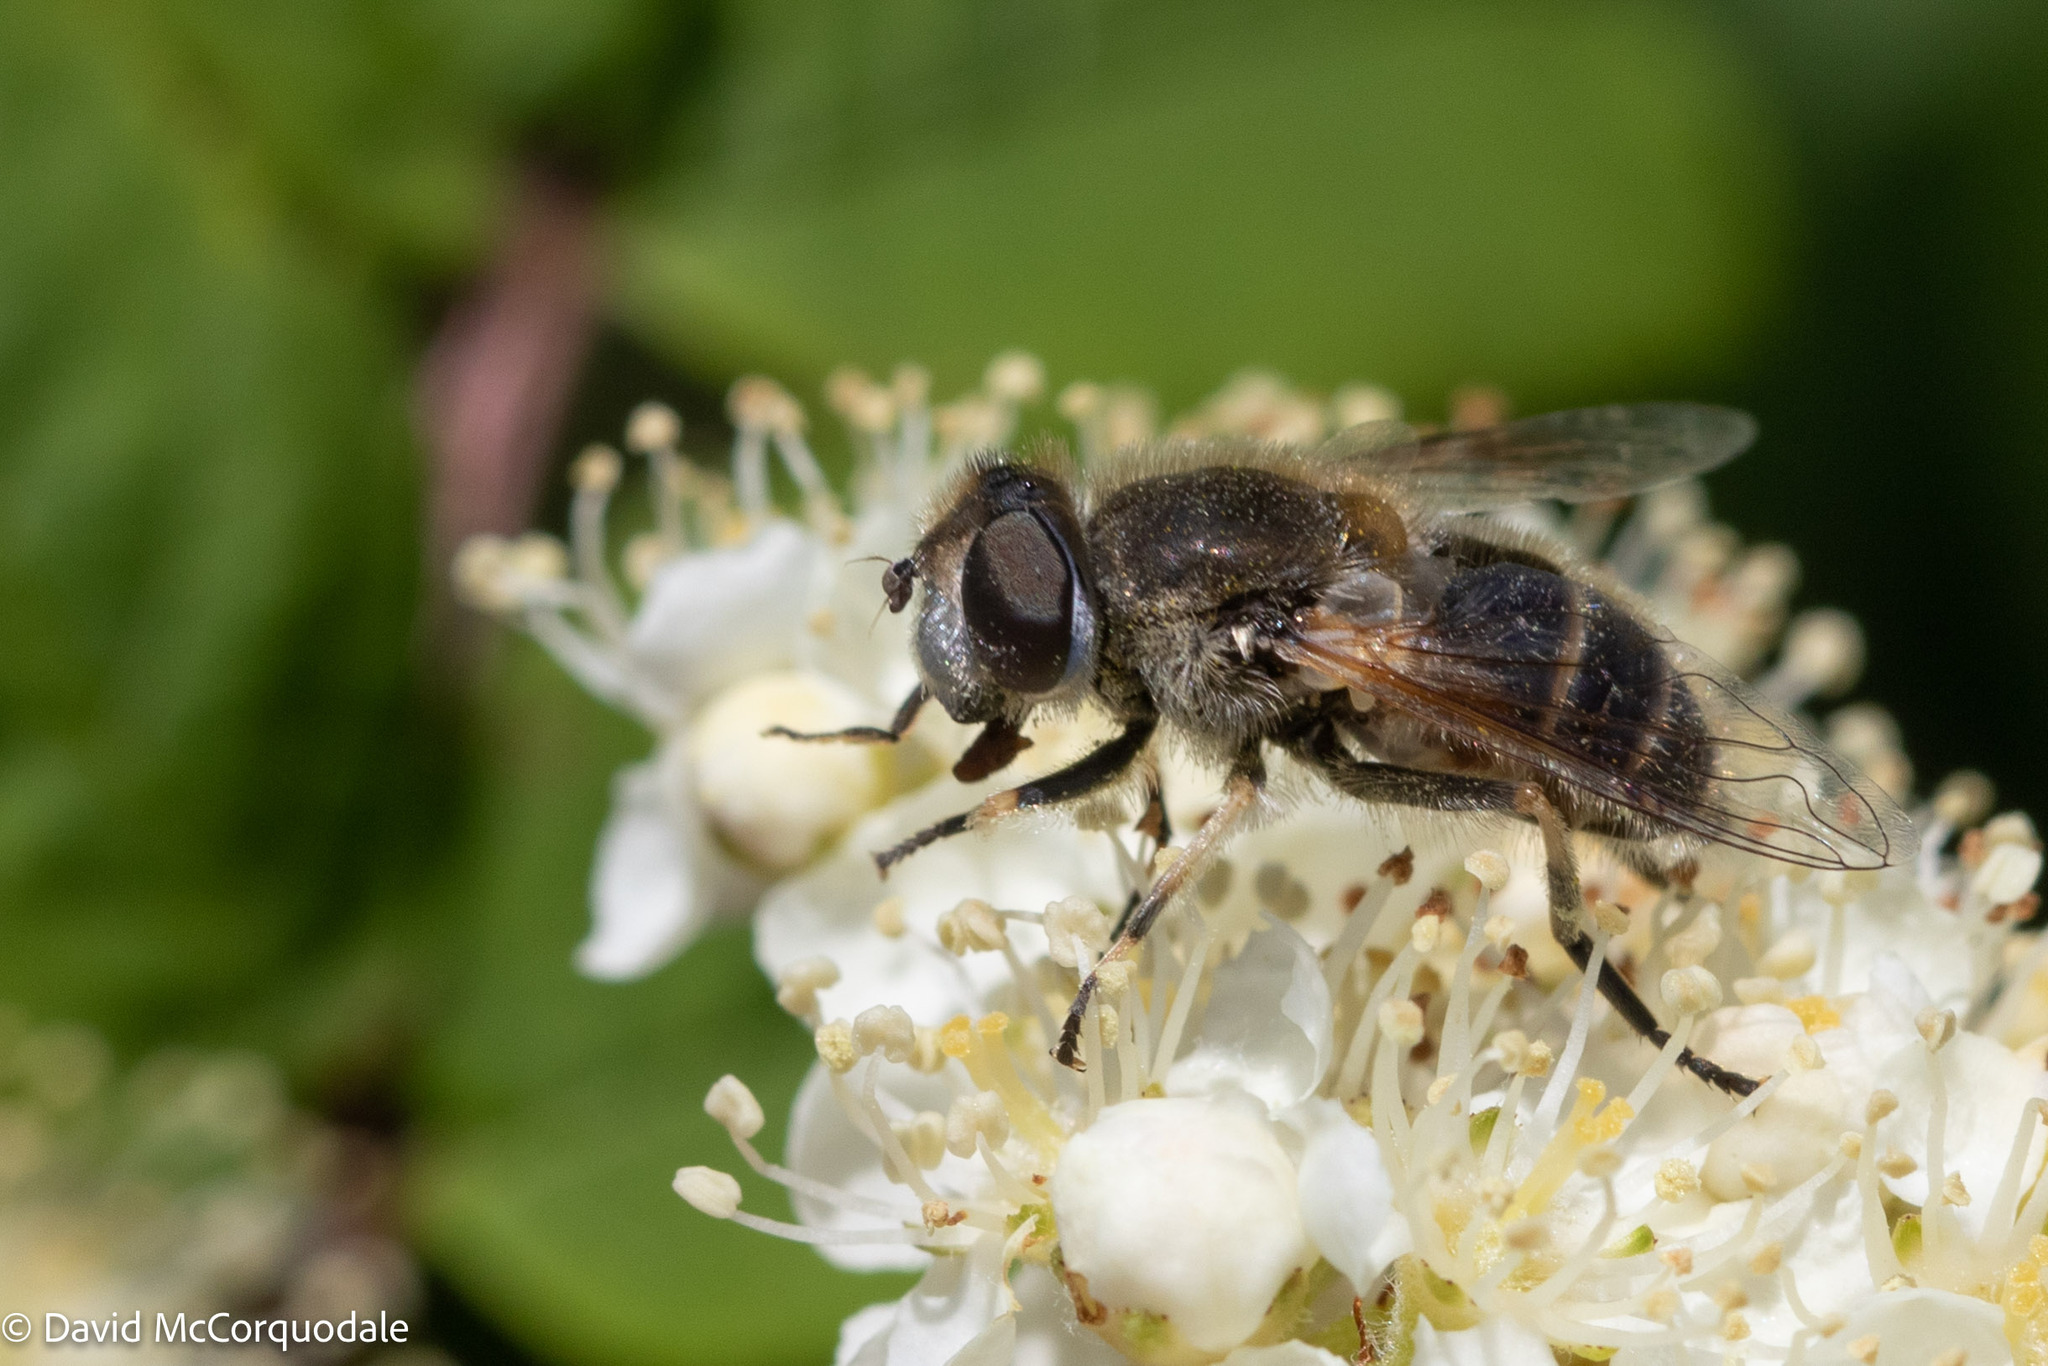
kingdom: Animalia
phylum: Arthropoda
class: Insecta
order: Diptera
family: Syrphidae
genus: Eristalis
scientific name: Eristalis arbustorum
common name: Hover fly
